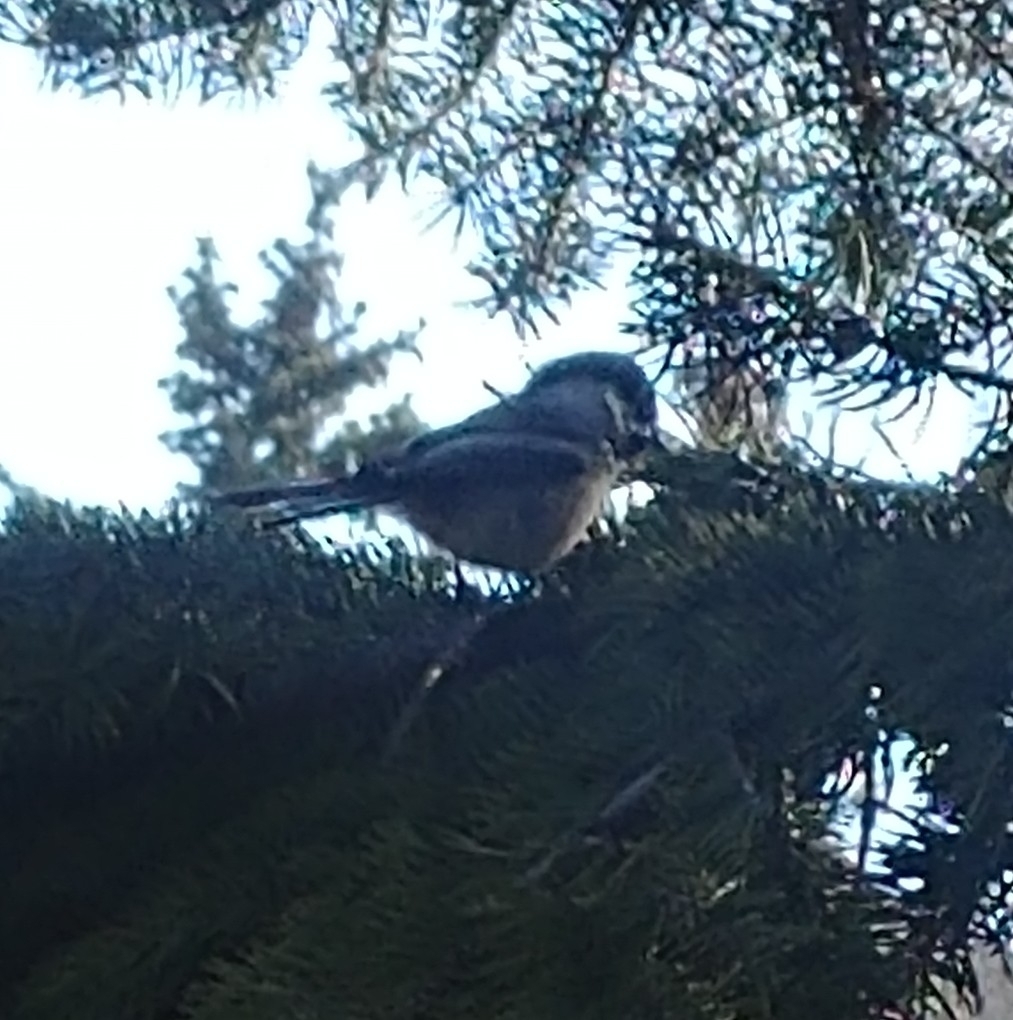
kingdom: Animalia
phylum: Chordata
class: Aves
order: Passeriformes
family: Paridae
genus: Poecile
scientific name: Poecile atricapillus
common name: Black-capped chickadee
